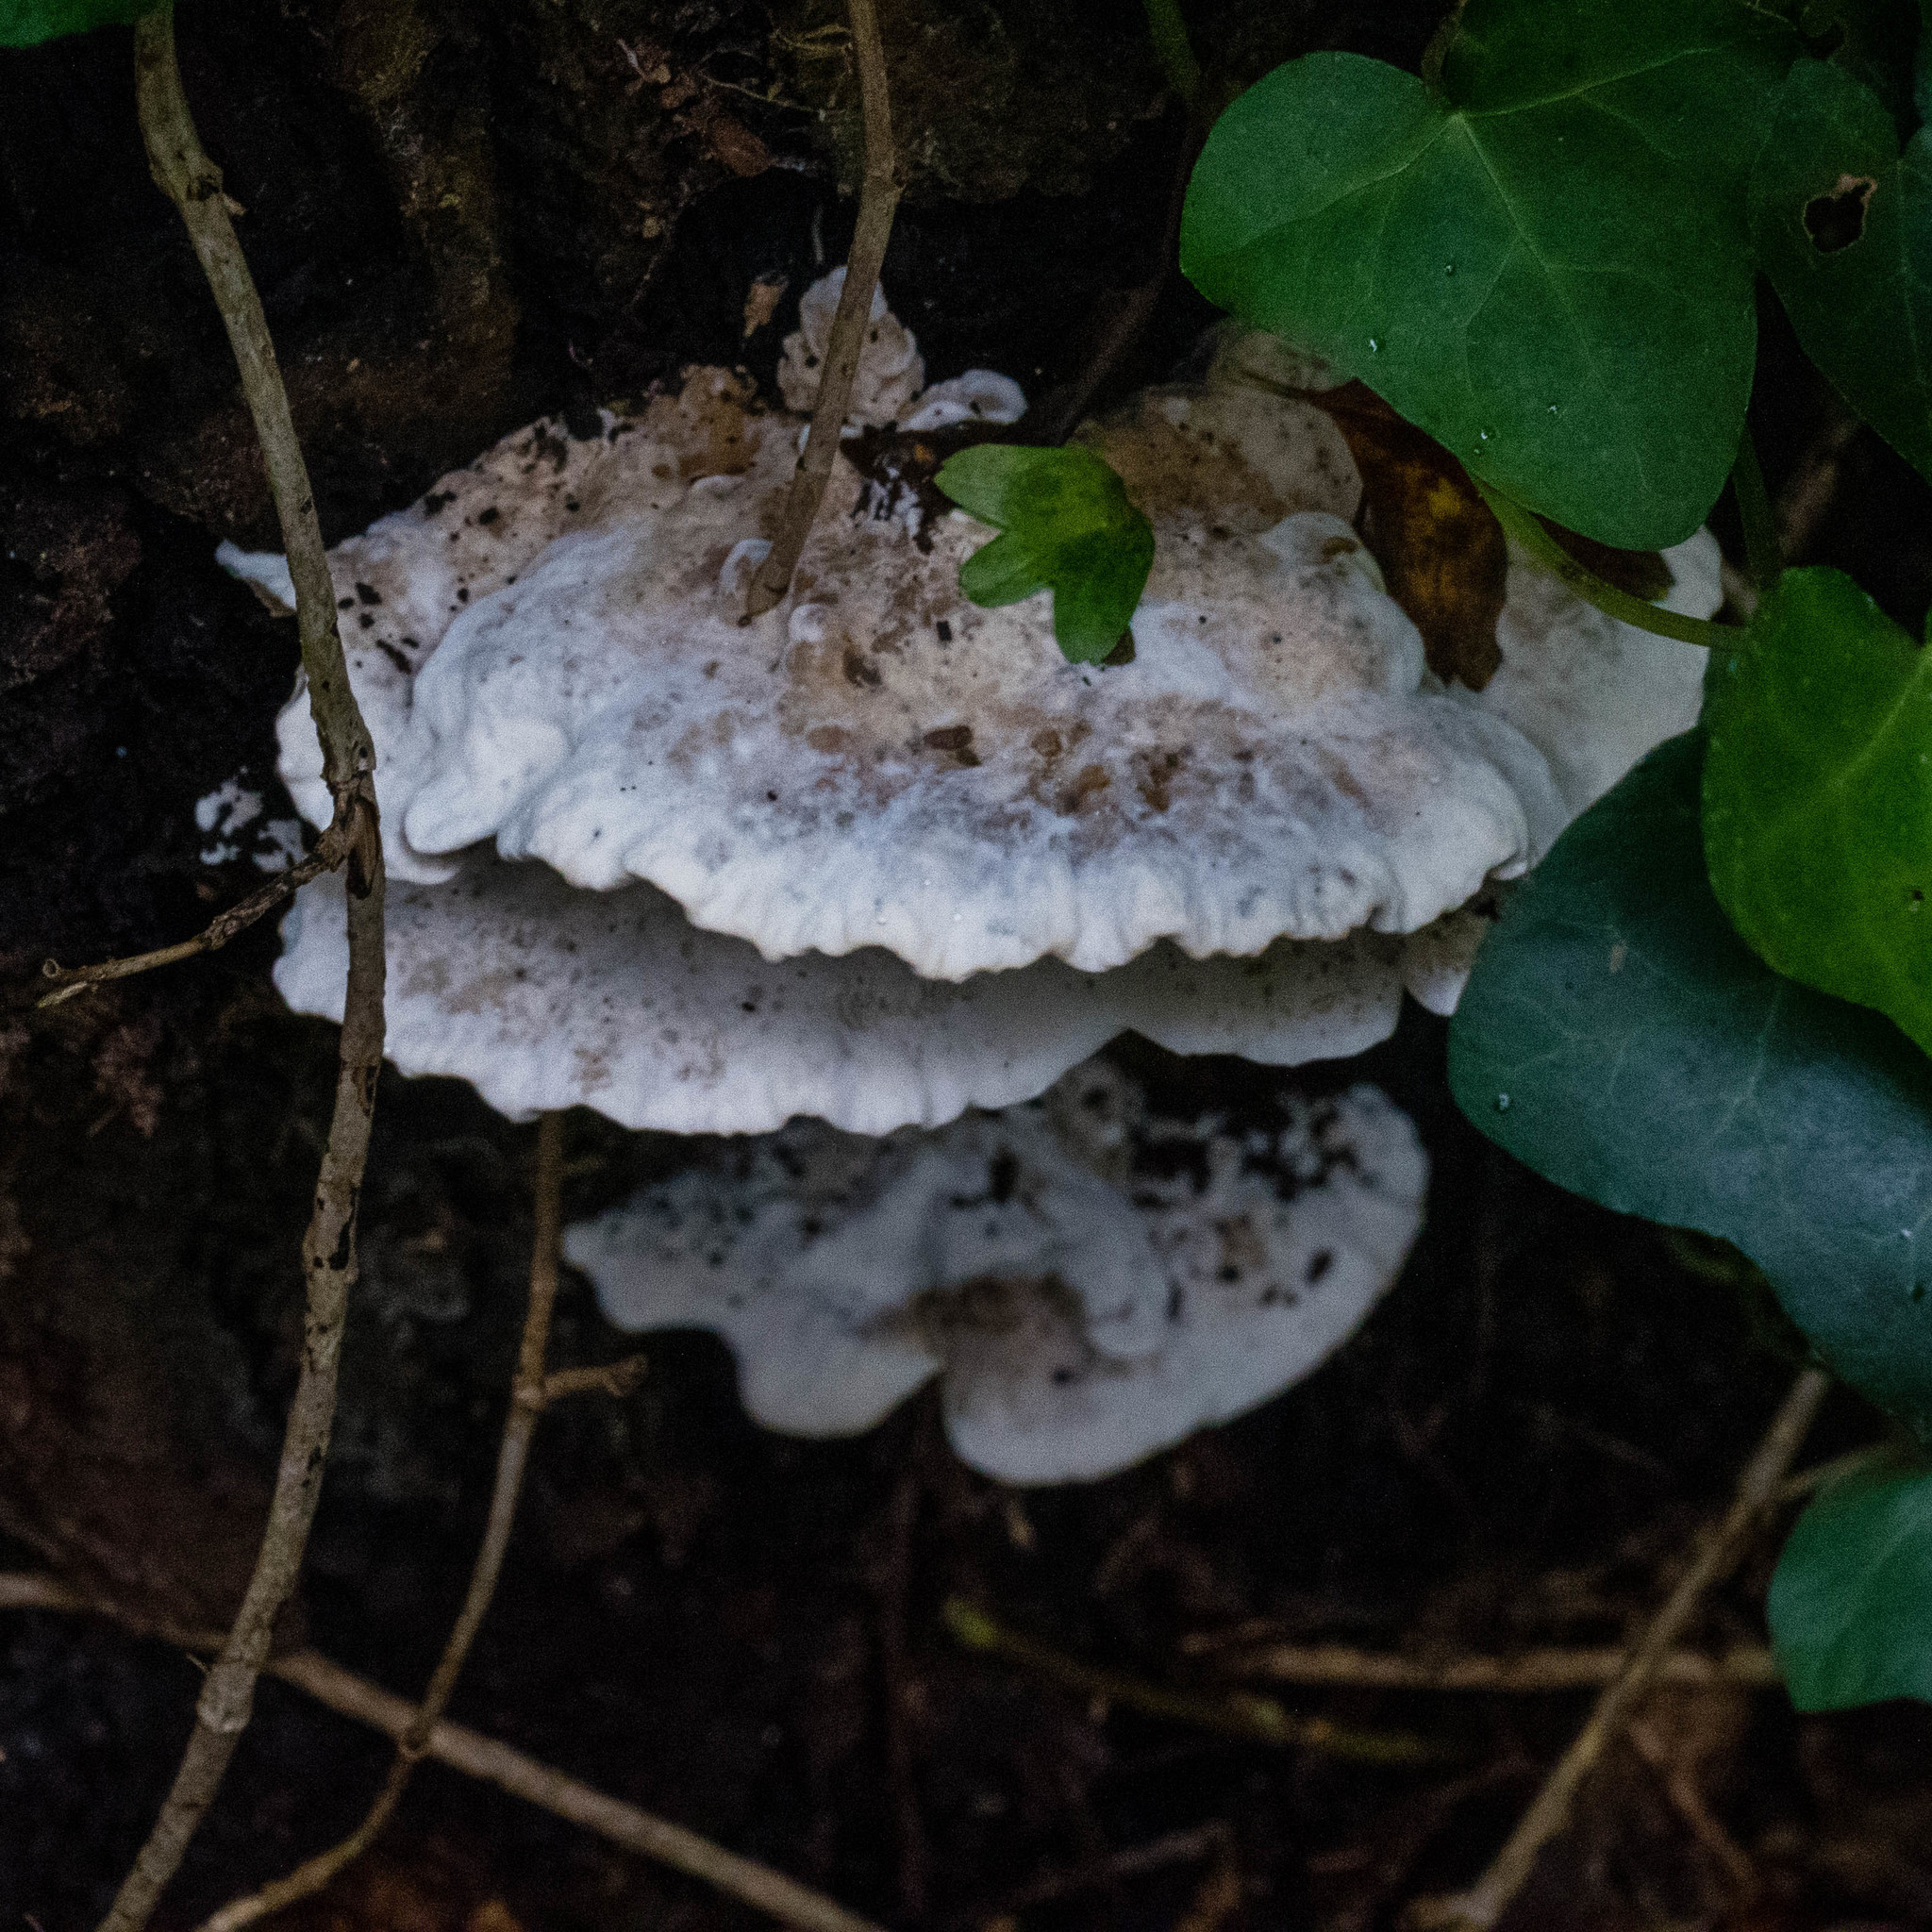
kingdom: Fungi
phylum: Basidiomycota
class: Agaricomycetes
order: Polyporales
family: Polyporaceae
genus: Cyanosporus
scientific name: Cyanosporus caesius
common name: Blue cheese polypore
